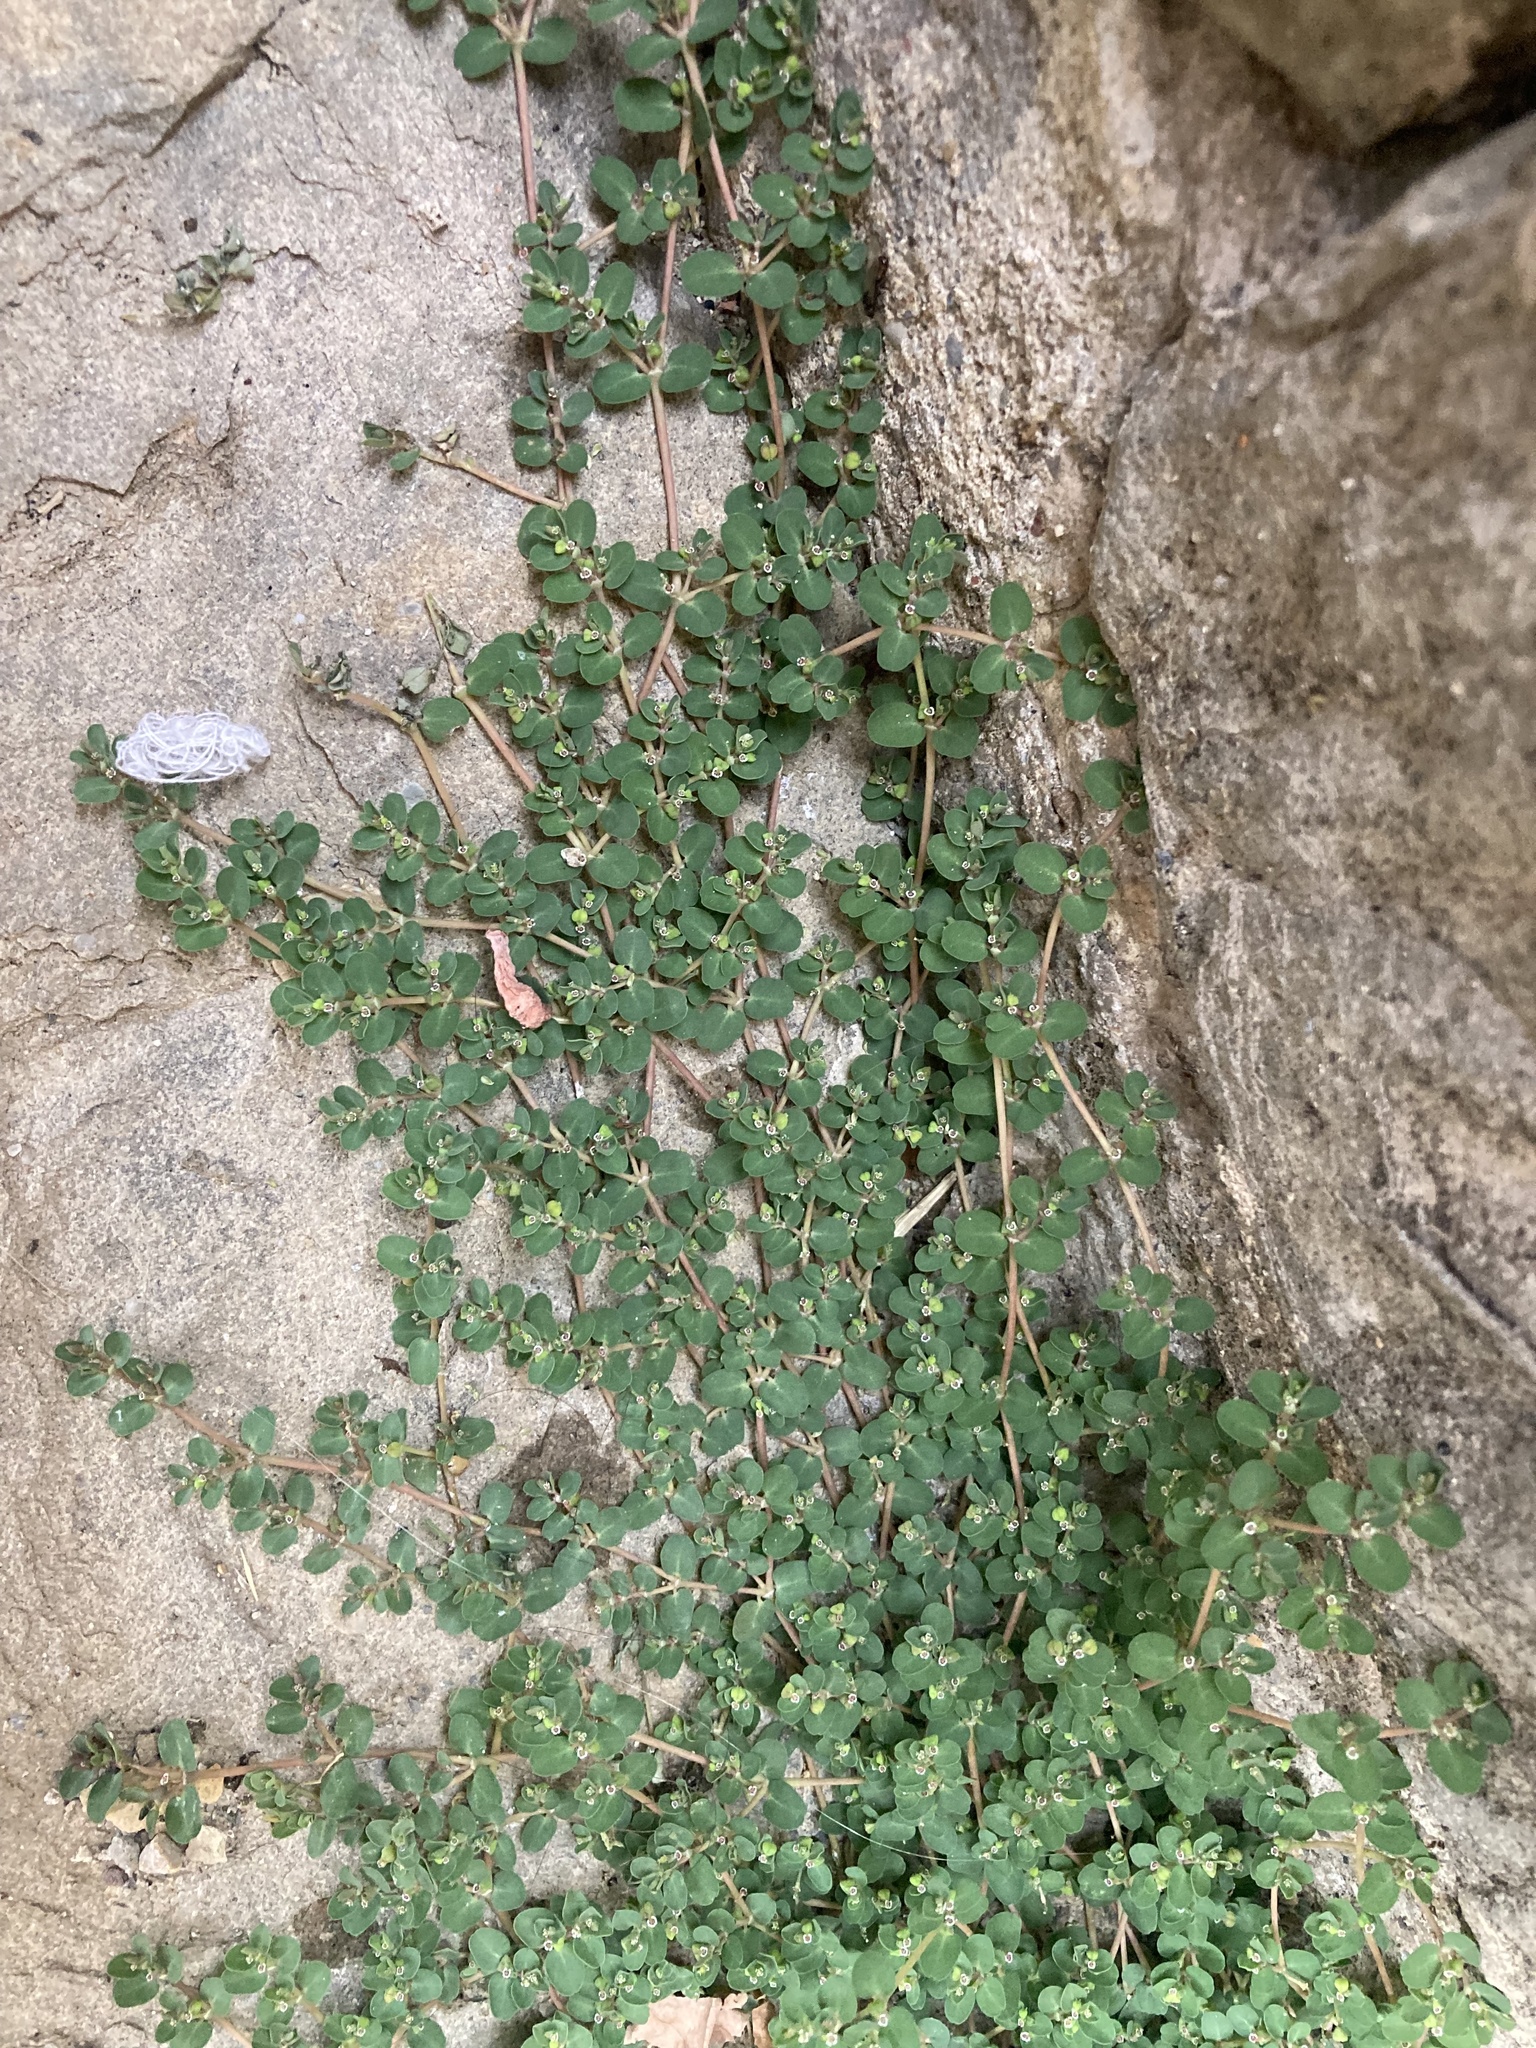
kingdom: Plantae
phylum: Tracheophyta
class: Magnoliopsida
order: Malpighiales
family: Euphorbiaceae
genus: Euphorbia
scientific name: Euphorbia serpens
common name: Matted sandmat
